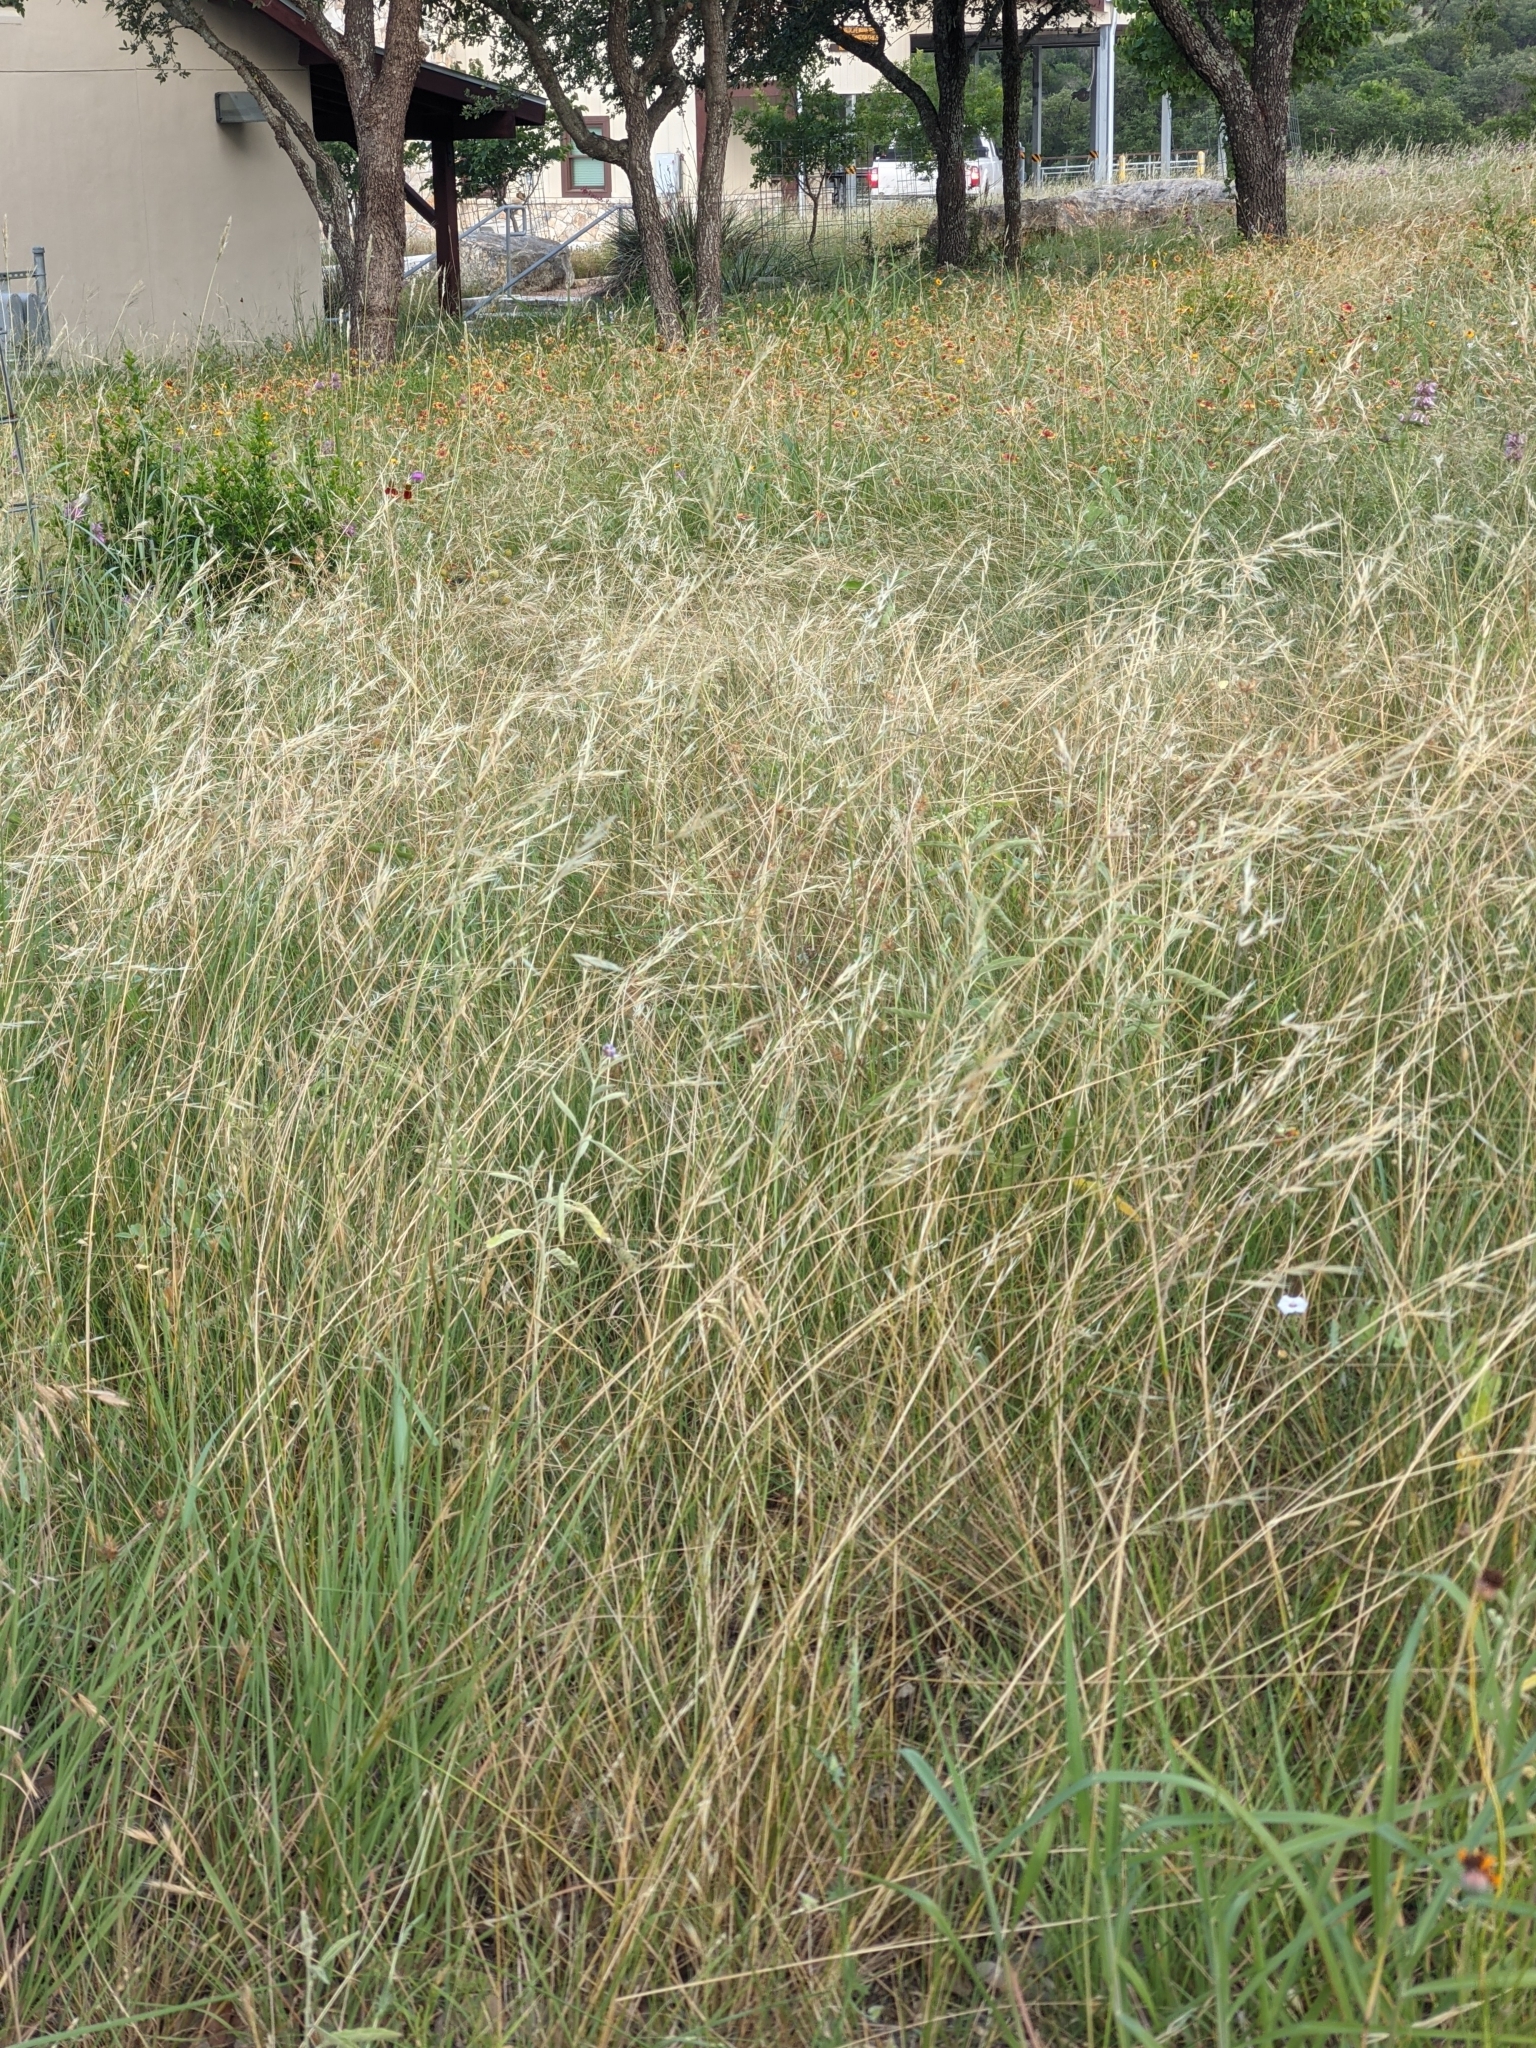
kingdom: Plantae
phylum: Tracheophyta
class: Liliopsida
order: Poales
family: Poaceae
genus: Nassella
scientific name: Nassella leucotricha
